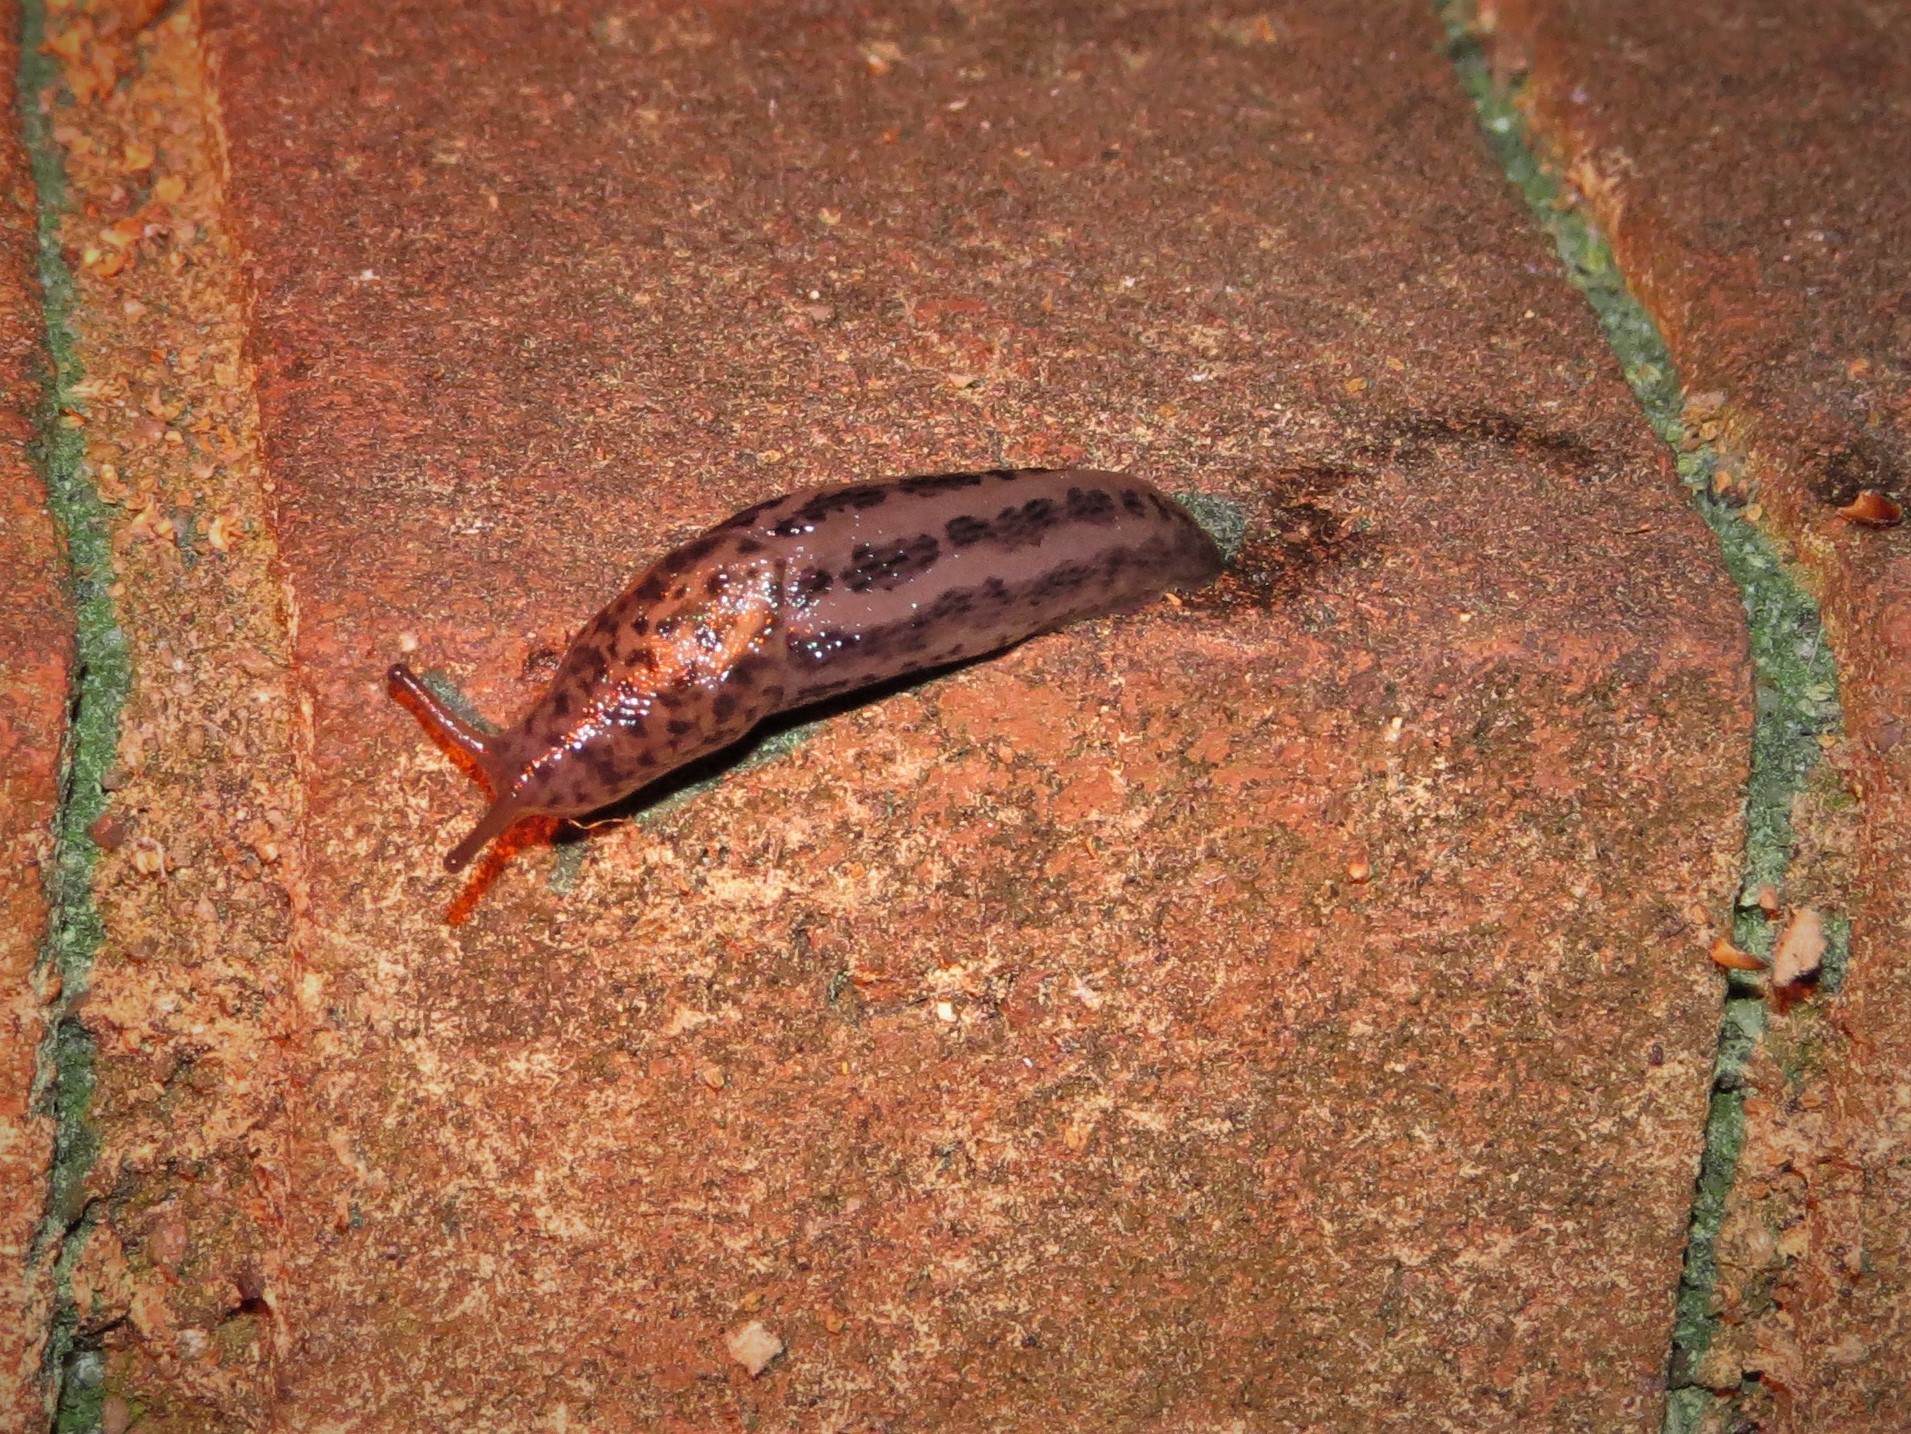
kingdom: Animalia
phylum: Mollusca
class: Gastropoda
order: Stylommatophora
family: Limacidae
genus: Limax
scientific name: Limax maximus
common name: Great grey slug
